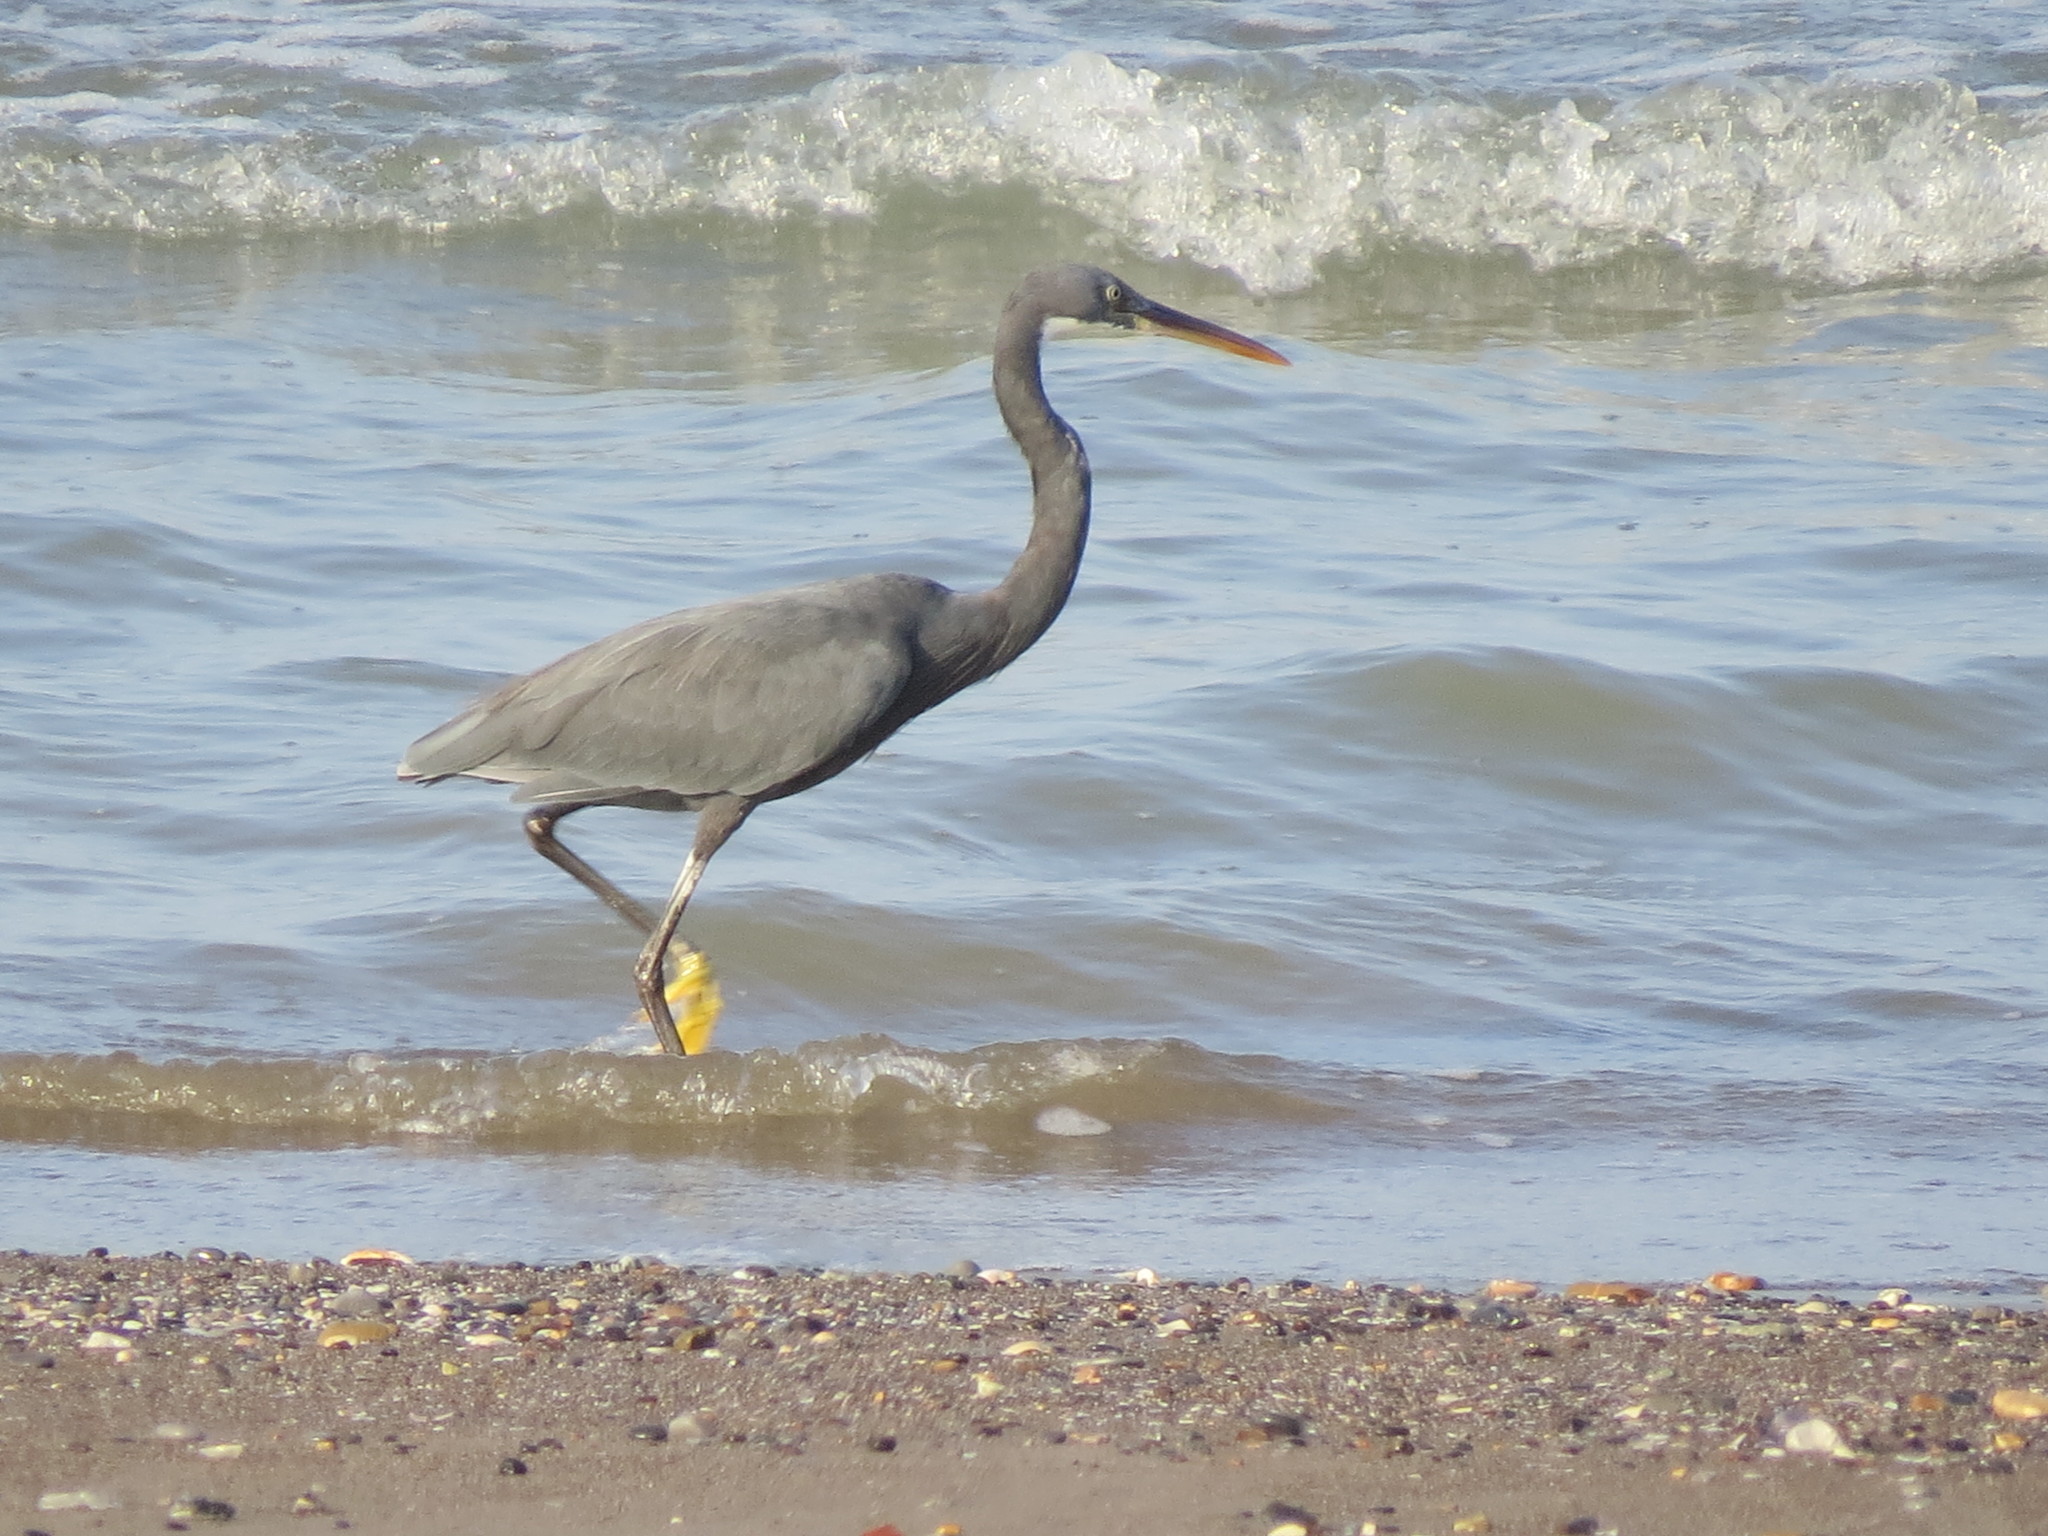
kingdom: Animalia
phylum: Chordata
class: Aves
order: Pelecaniformes
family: Ardeidae
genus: Egretta
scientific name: Egretta gularis
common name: Western reef-heron
